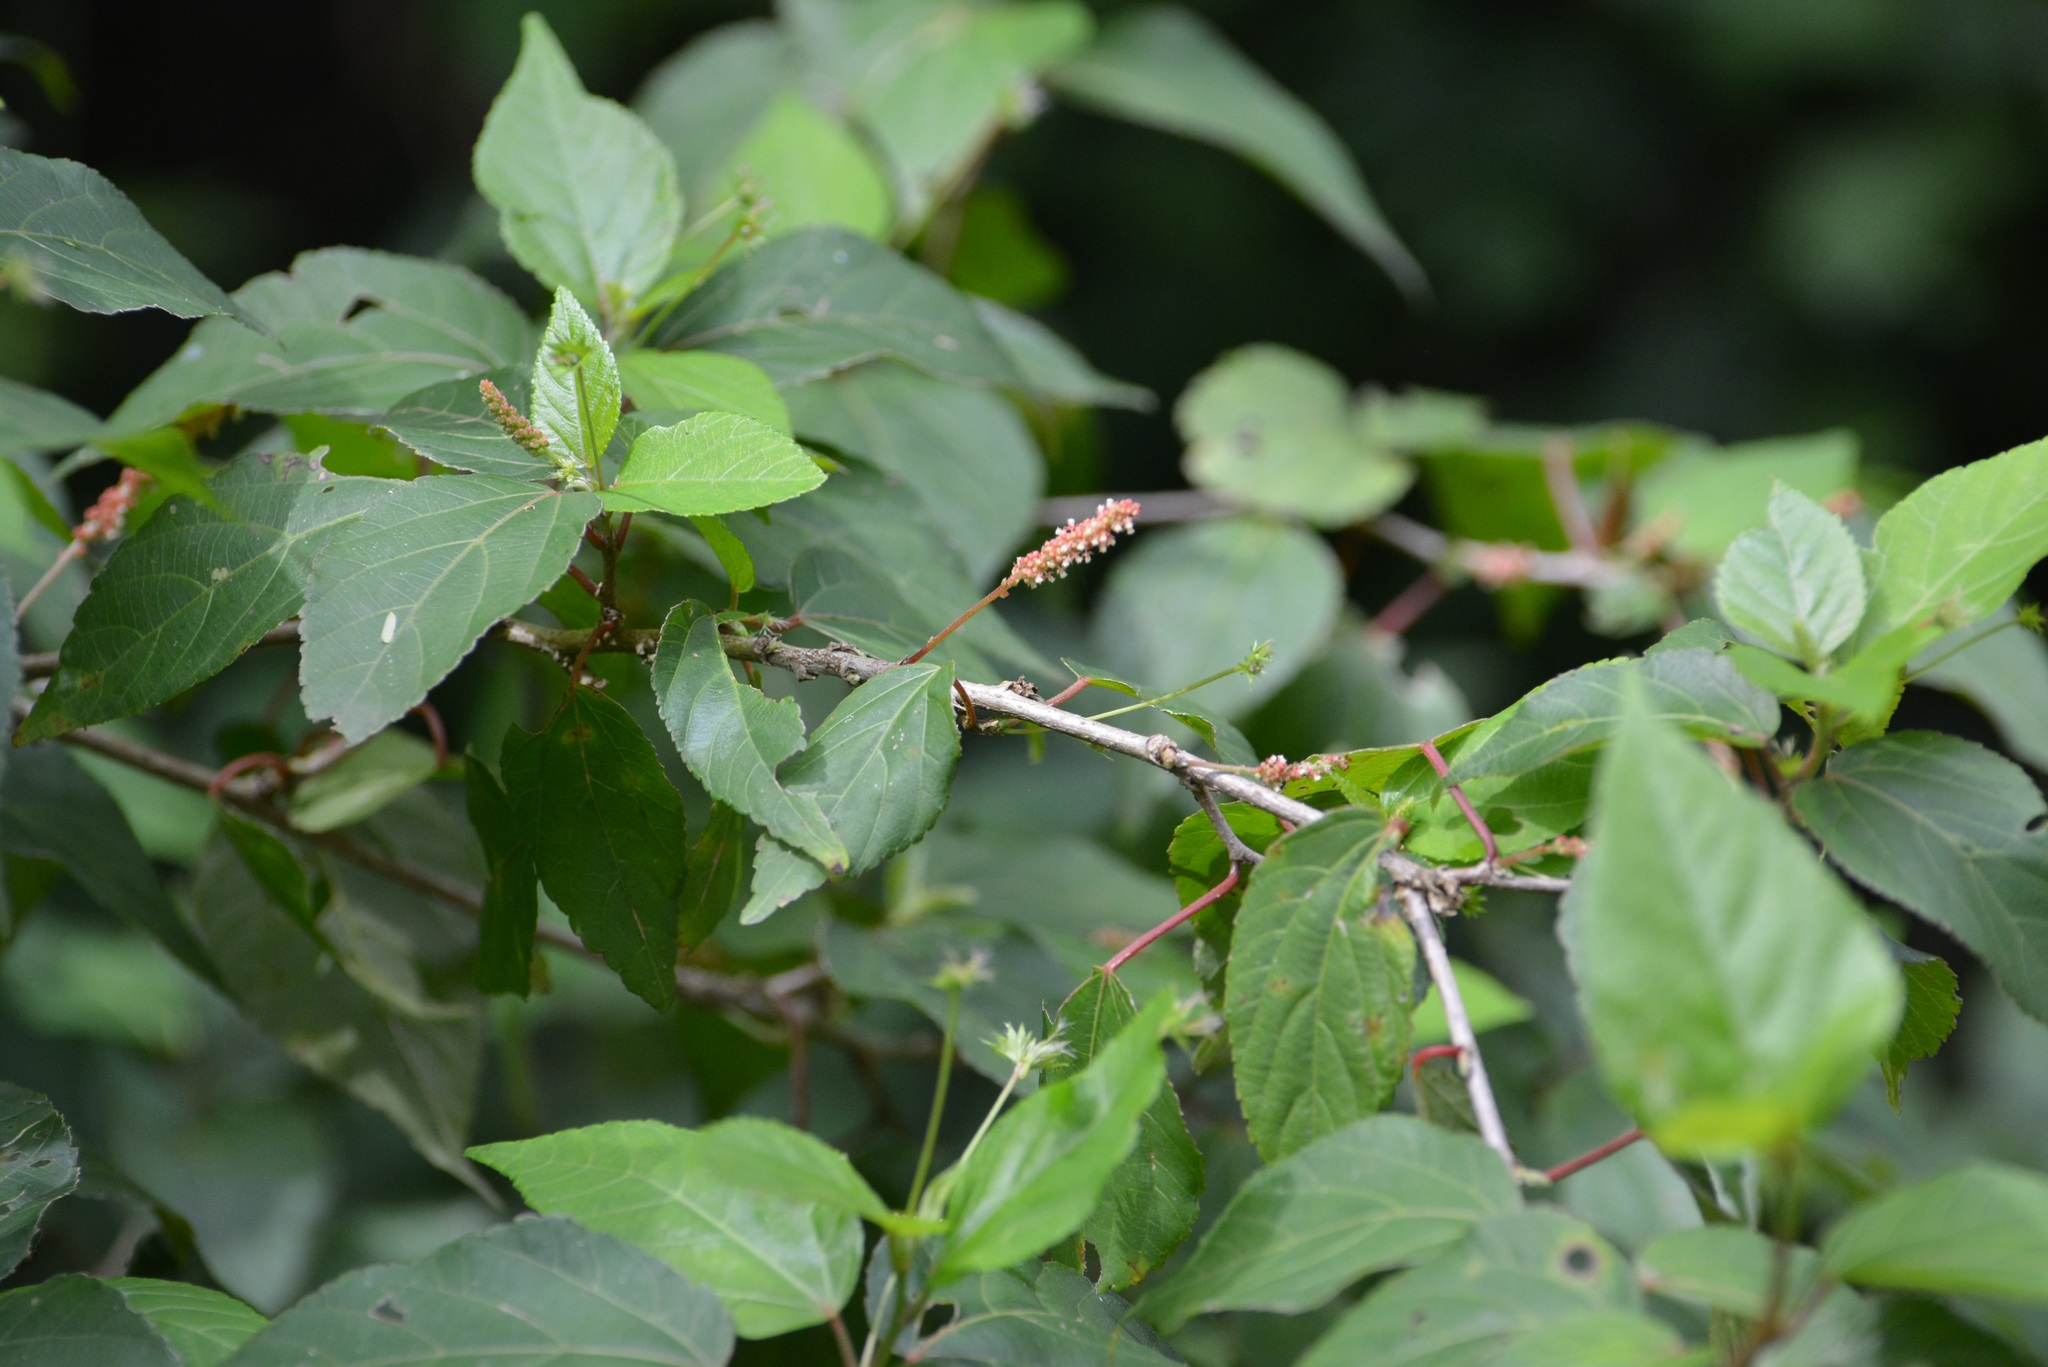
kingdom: Plantae
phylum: Tracheophyta
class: Magnoliopsida
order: Malpighiales
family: Euphorbiaceae
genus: Acalypha
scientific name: Acalypha leptopoda
